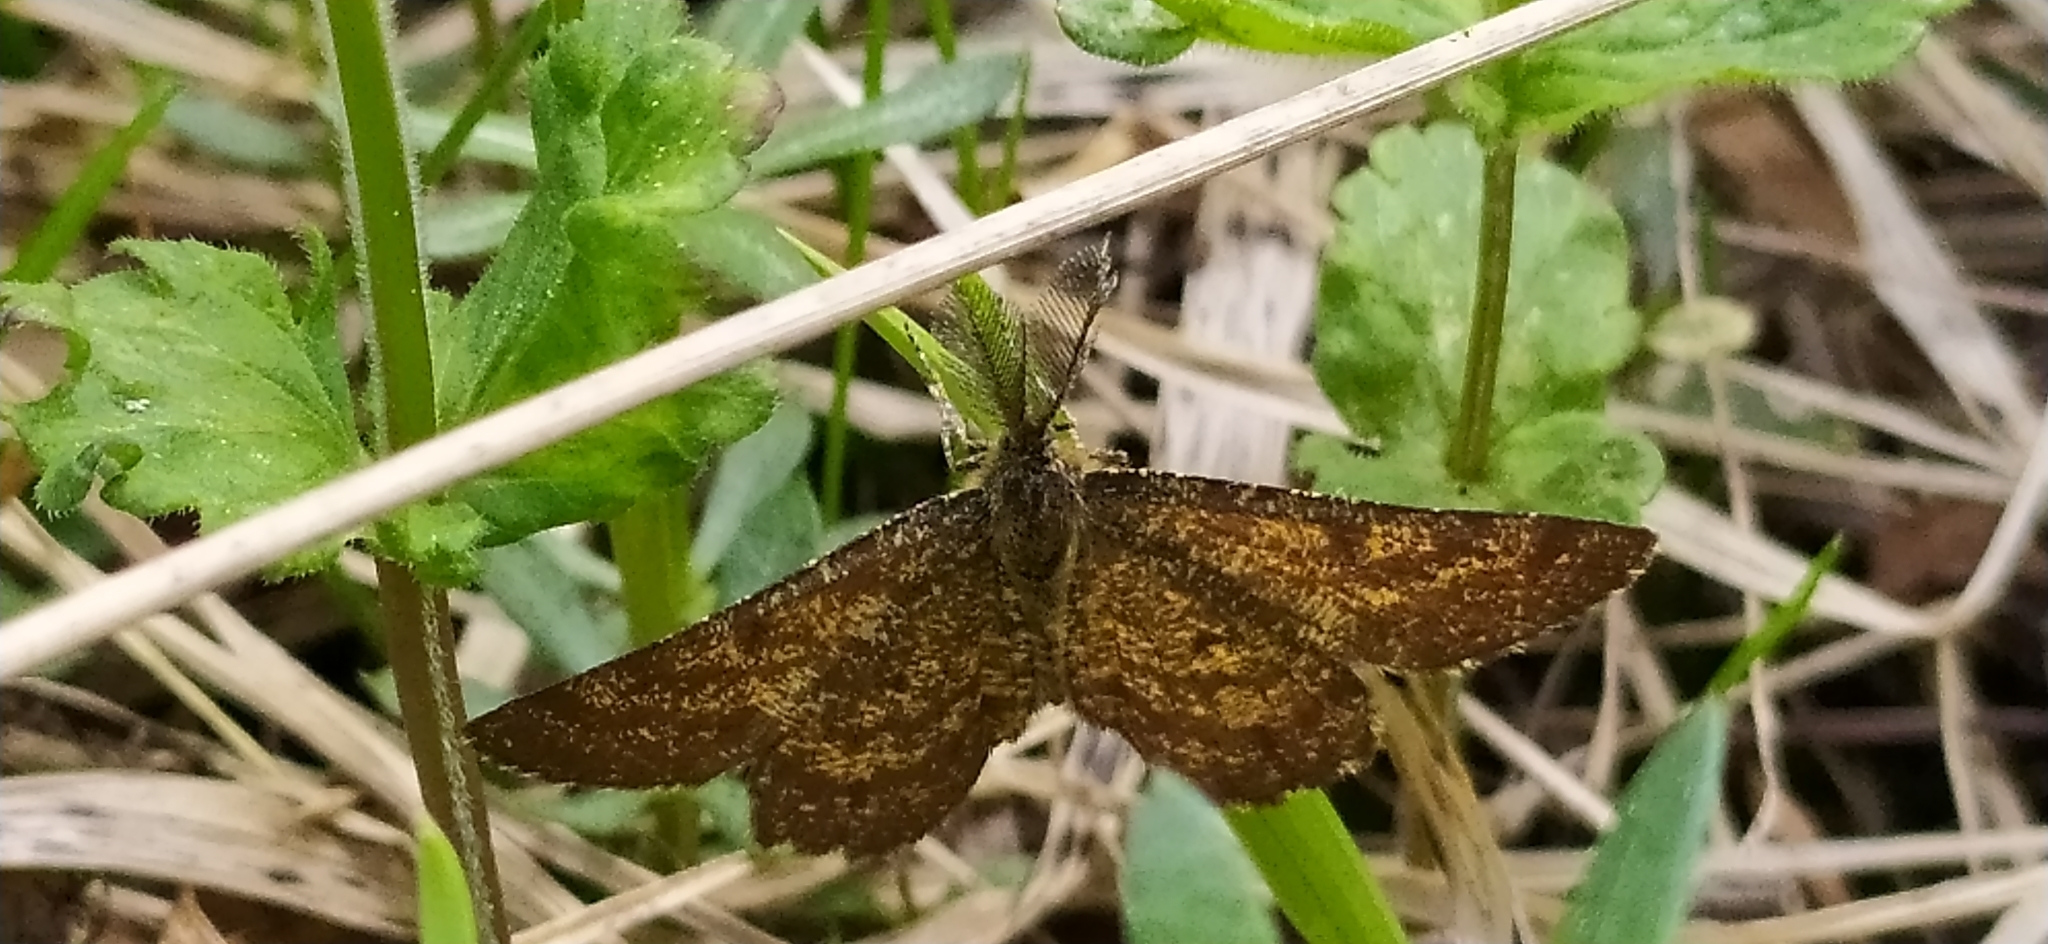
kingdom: Animalia
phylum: Arthropoda
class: Insecta
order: Lepidoptera
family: Geometridae
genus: Ematurga
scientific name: Ematurga atomaria
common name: Common heath
